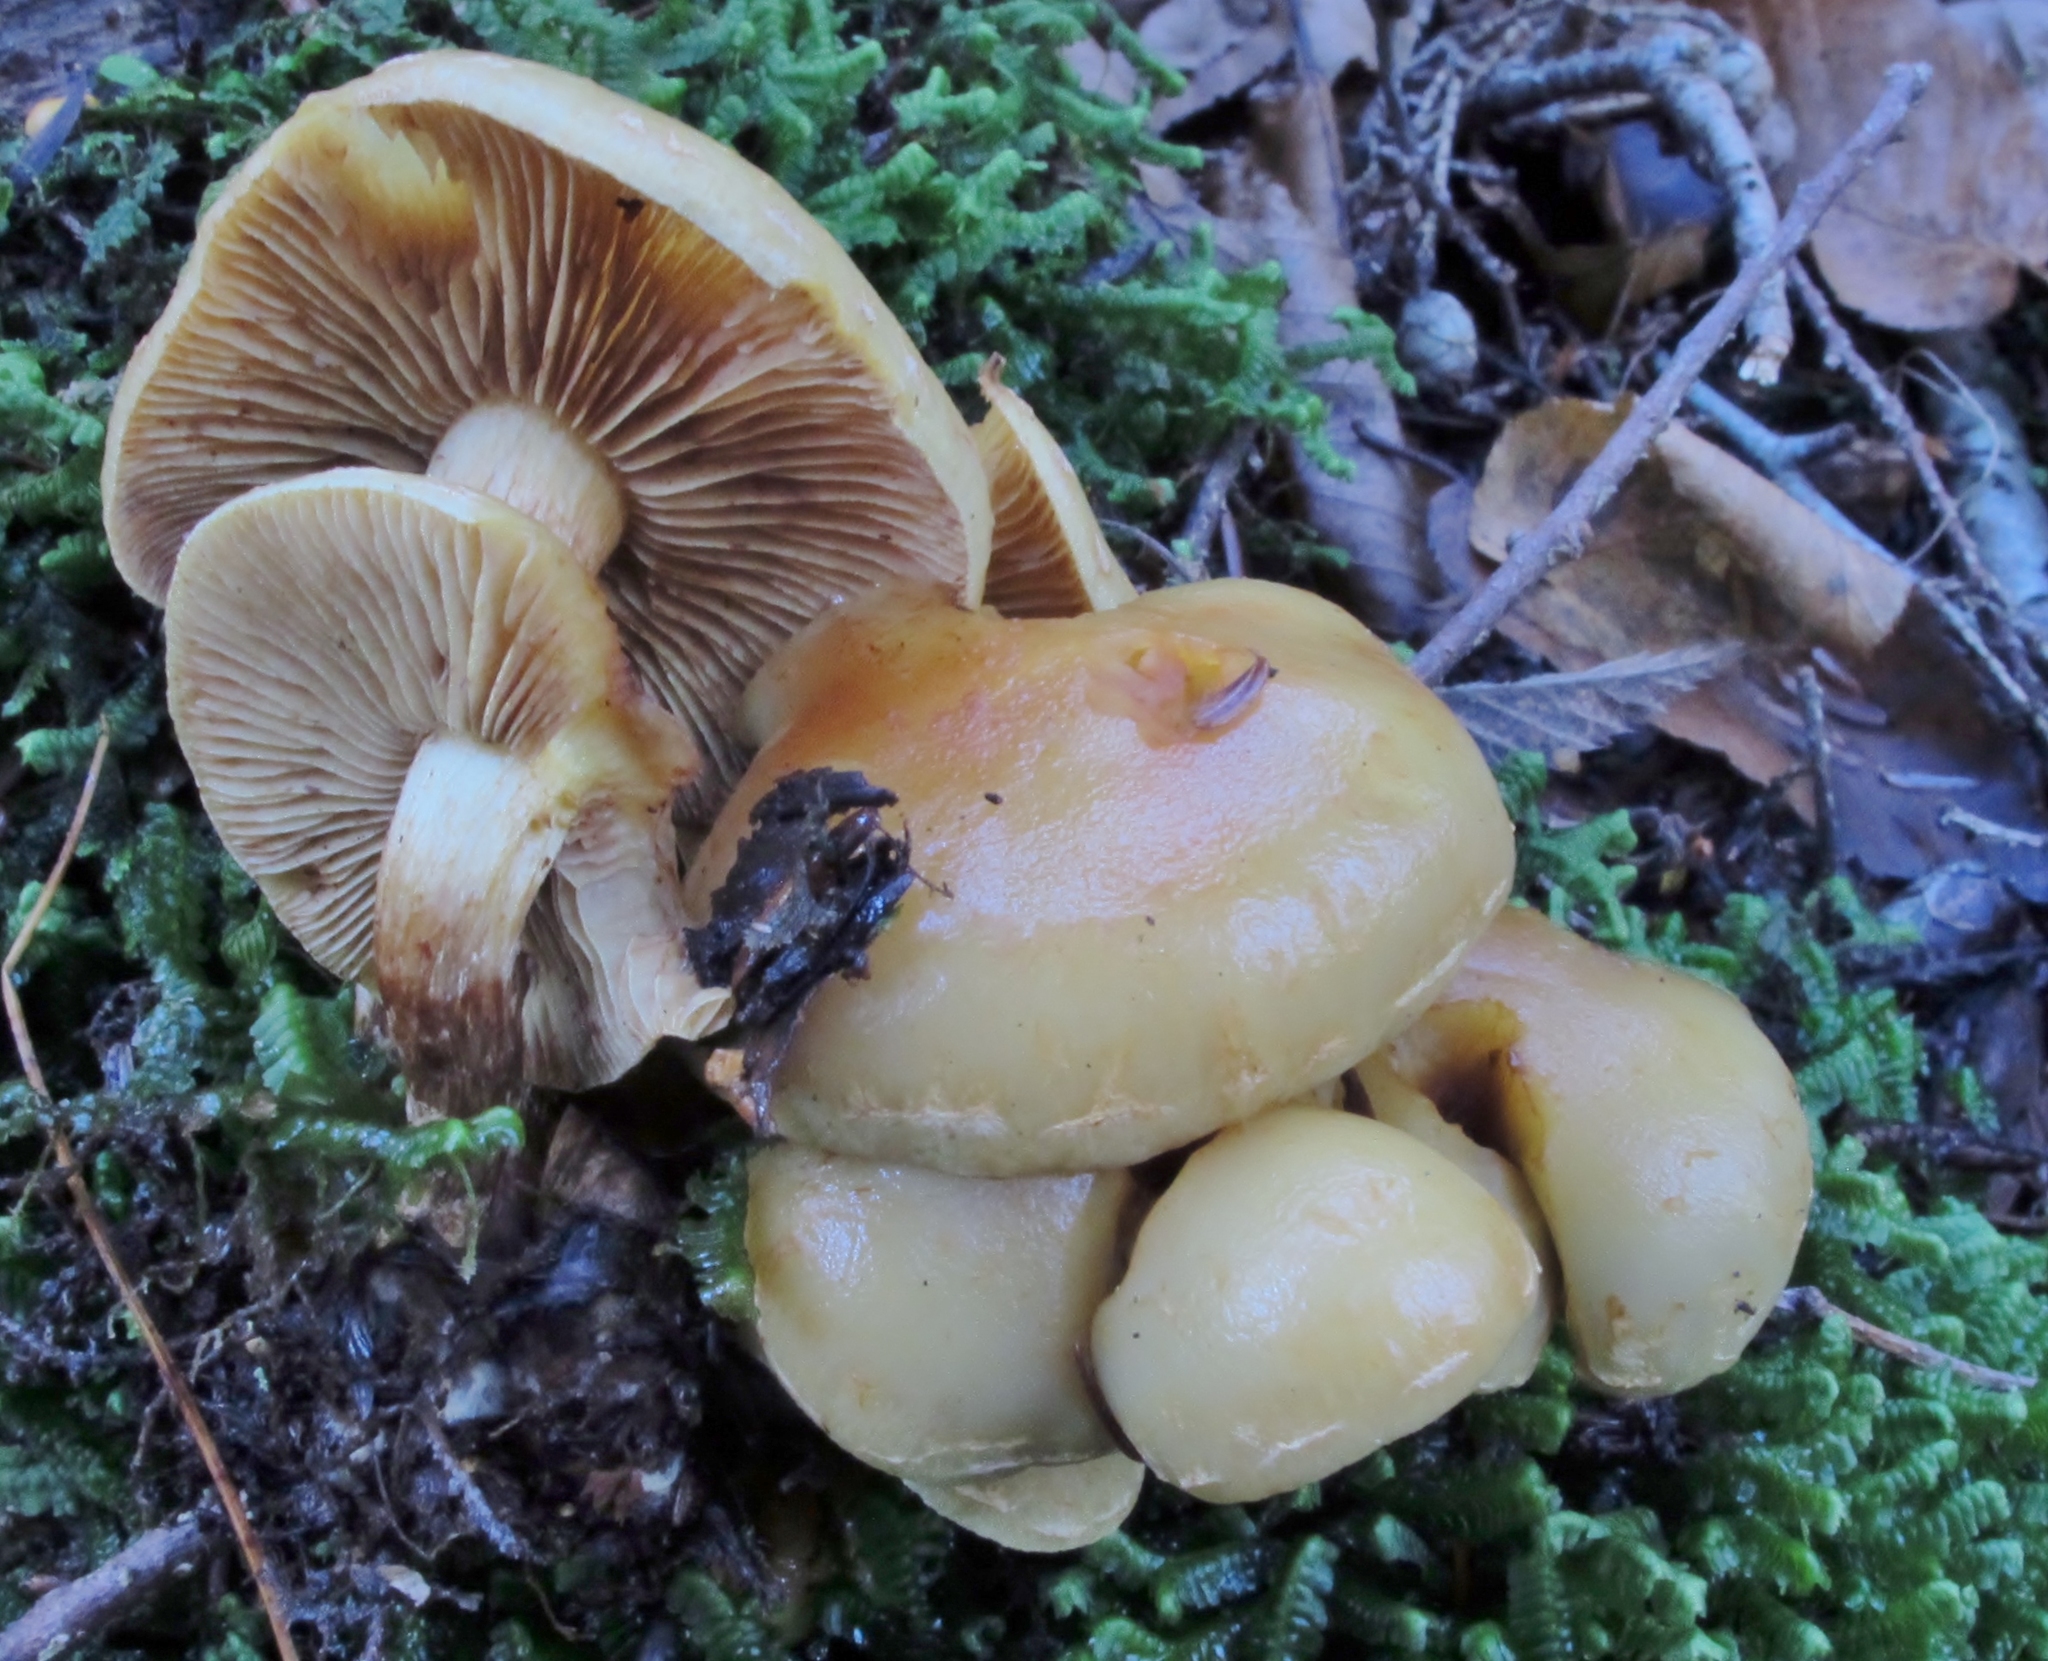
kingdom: Fungi
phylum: Basidiomycota
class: Agaricomycetes
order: Agaricales
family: Hymenogastraceae
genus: Flammula
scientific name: Flammula alnicola
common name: Alder scalycap
